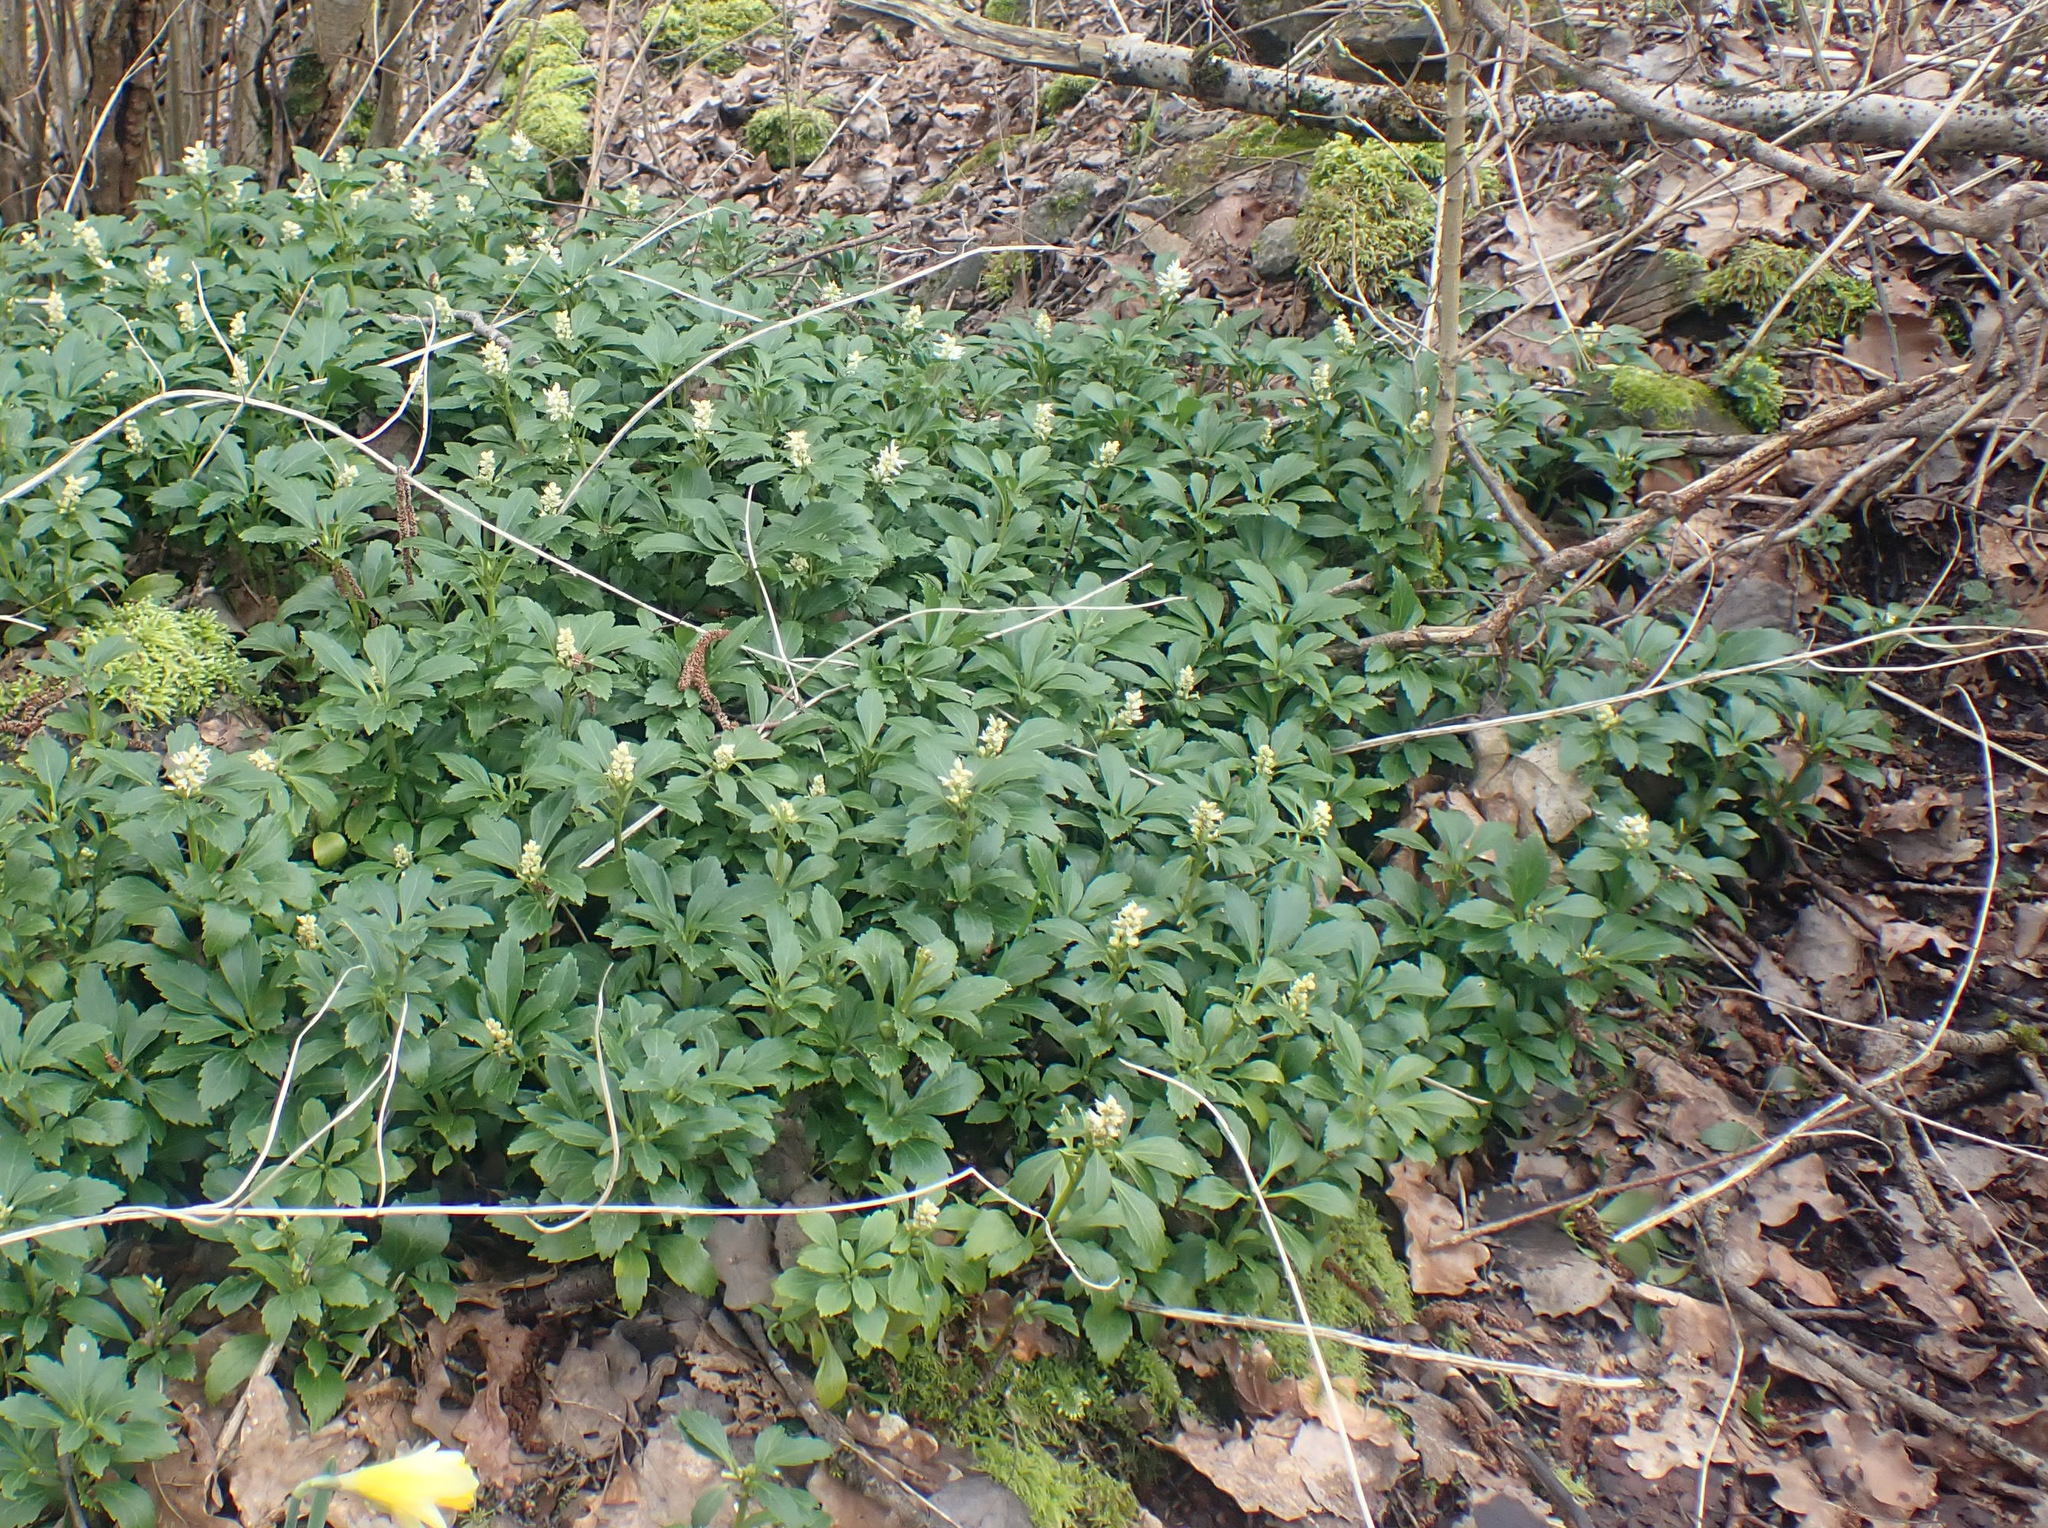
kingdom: Plantae
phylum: Tracheophyta
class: Magnoliopsida
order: Buxales
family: Buxaceae
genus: Pachysandra
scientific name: Pachysandra terminalis
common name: Japanese pachysandra
